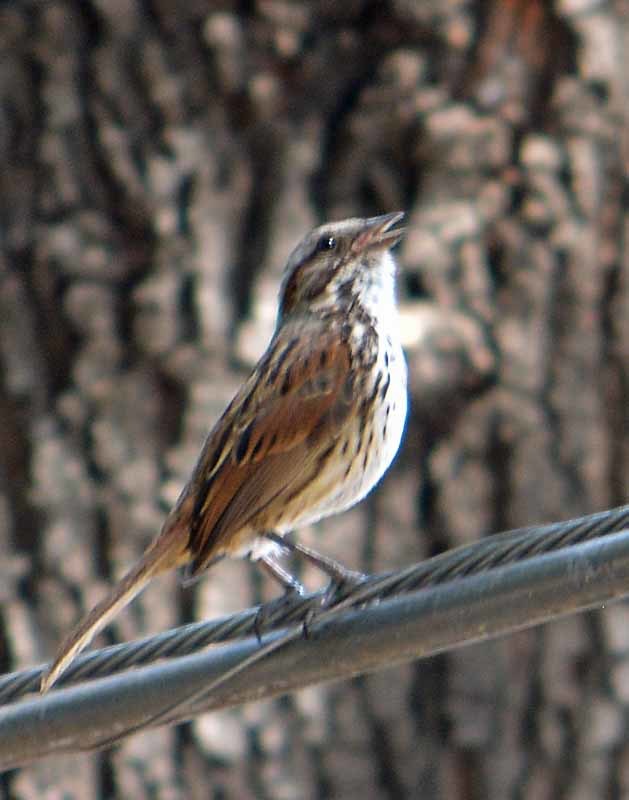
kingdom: Animalia
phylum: Chordata
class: Aves
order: Passeriformes
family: Passerellidae
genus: Melospiza
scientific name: Melospiza melodia
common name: Song sparrow
